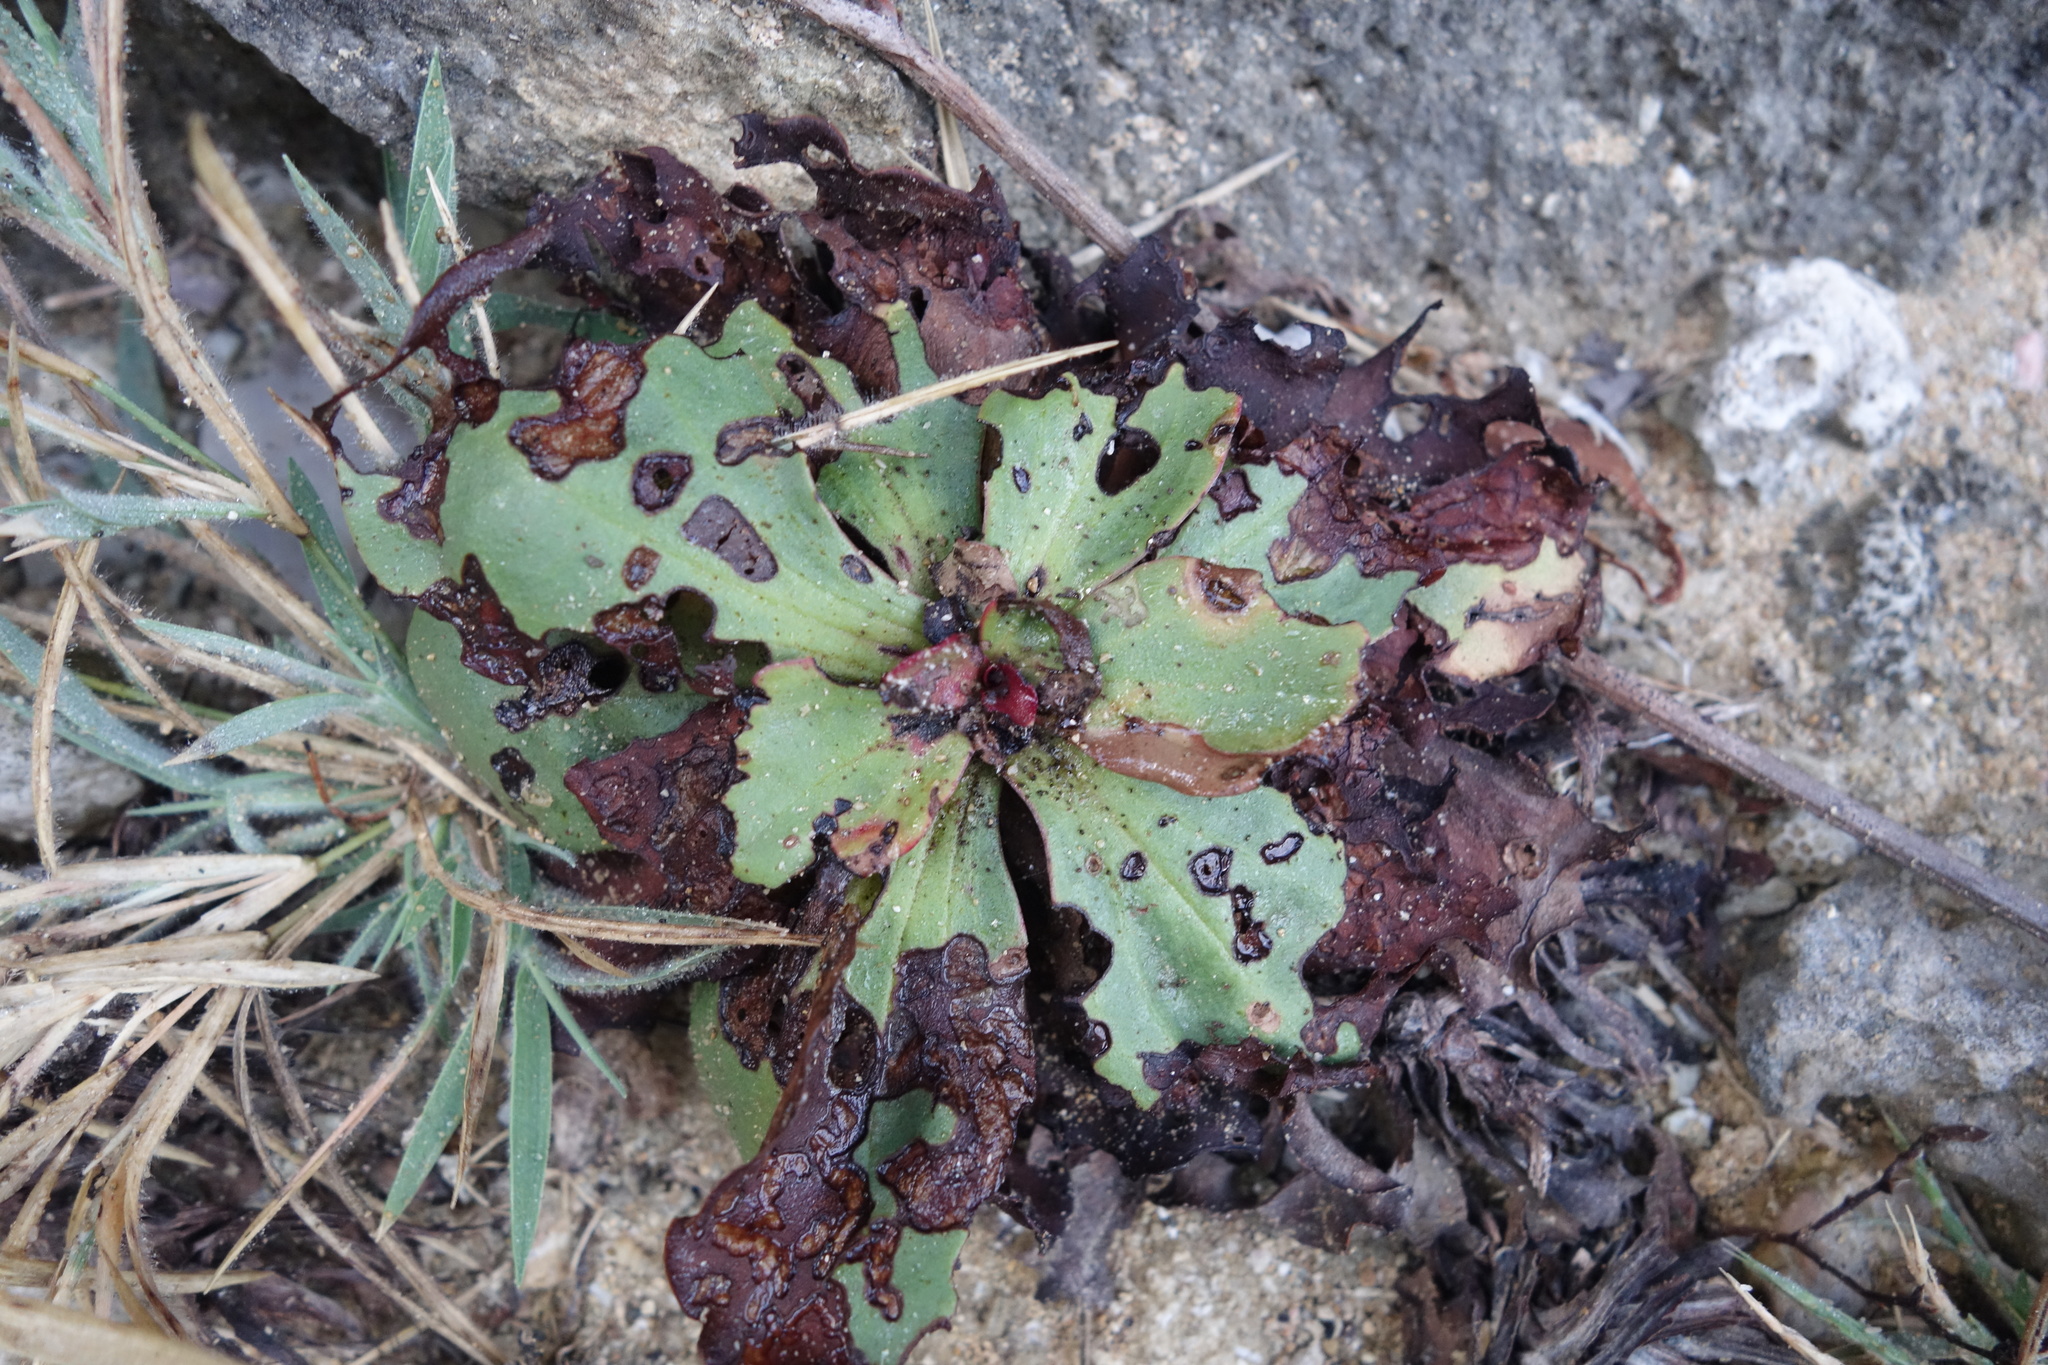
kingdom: Plantae
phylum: Tracheophyta
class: Magnoliopsida
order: Caryophyllales
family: Plumbaginaceae
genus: Limonium
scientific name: Limonium sinense
